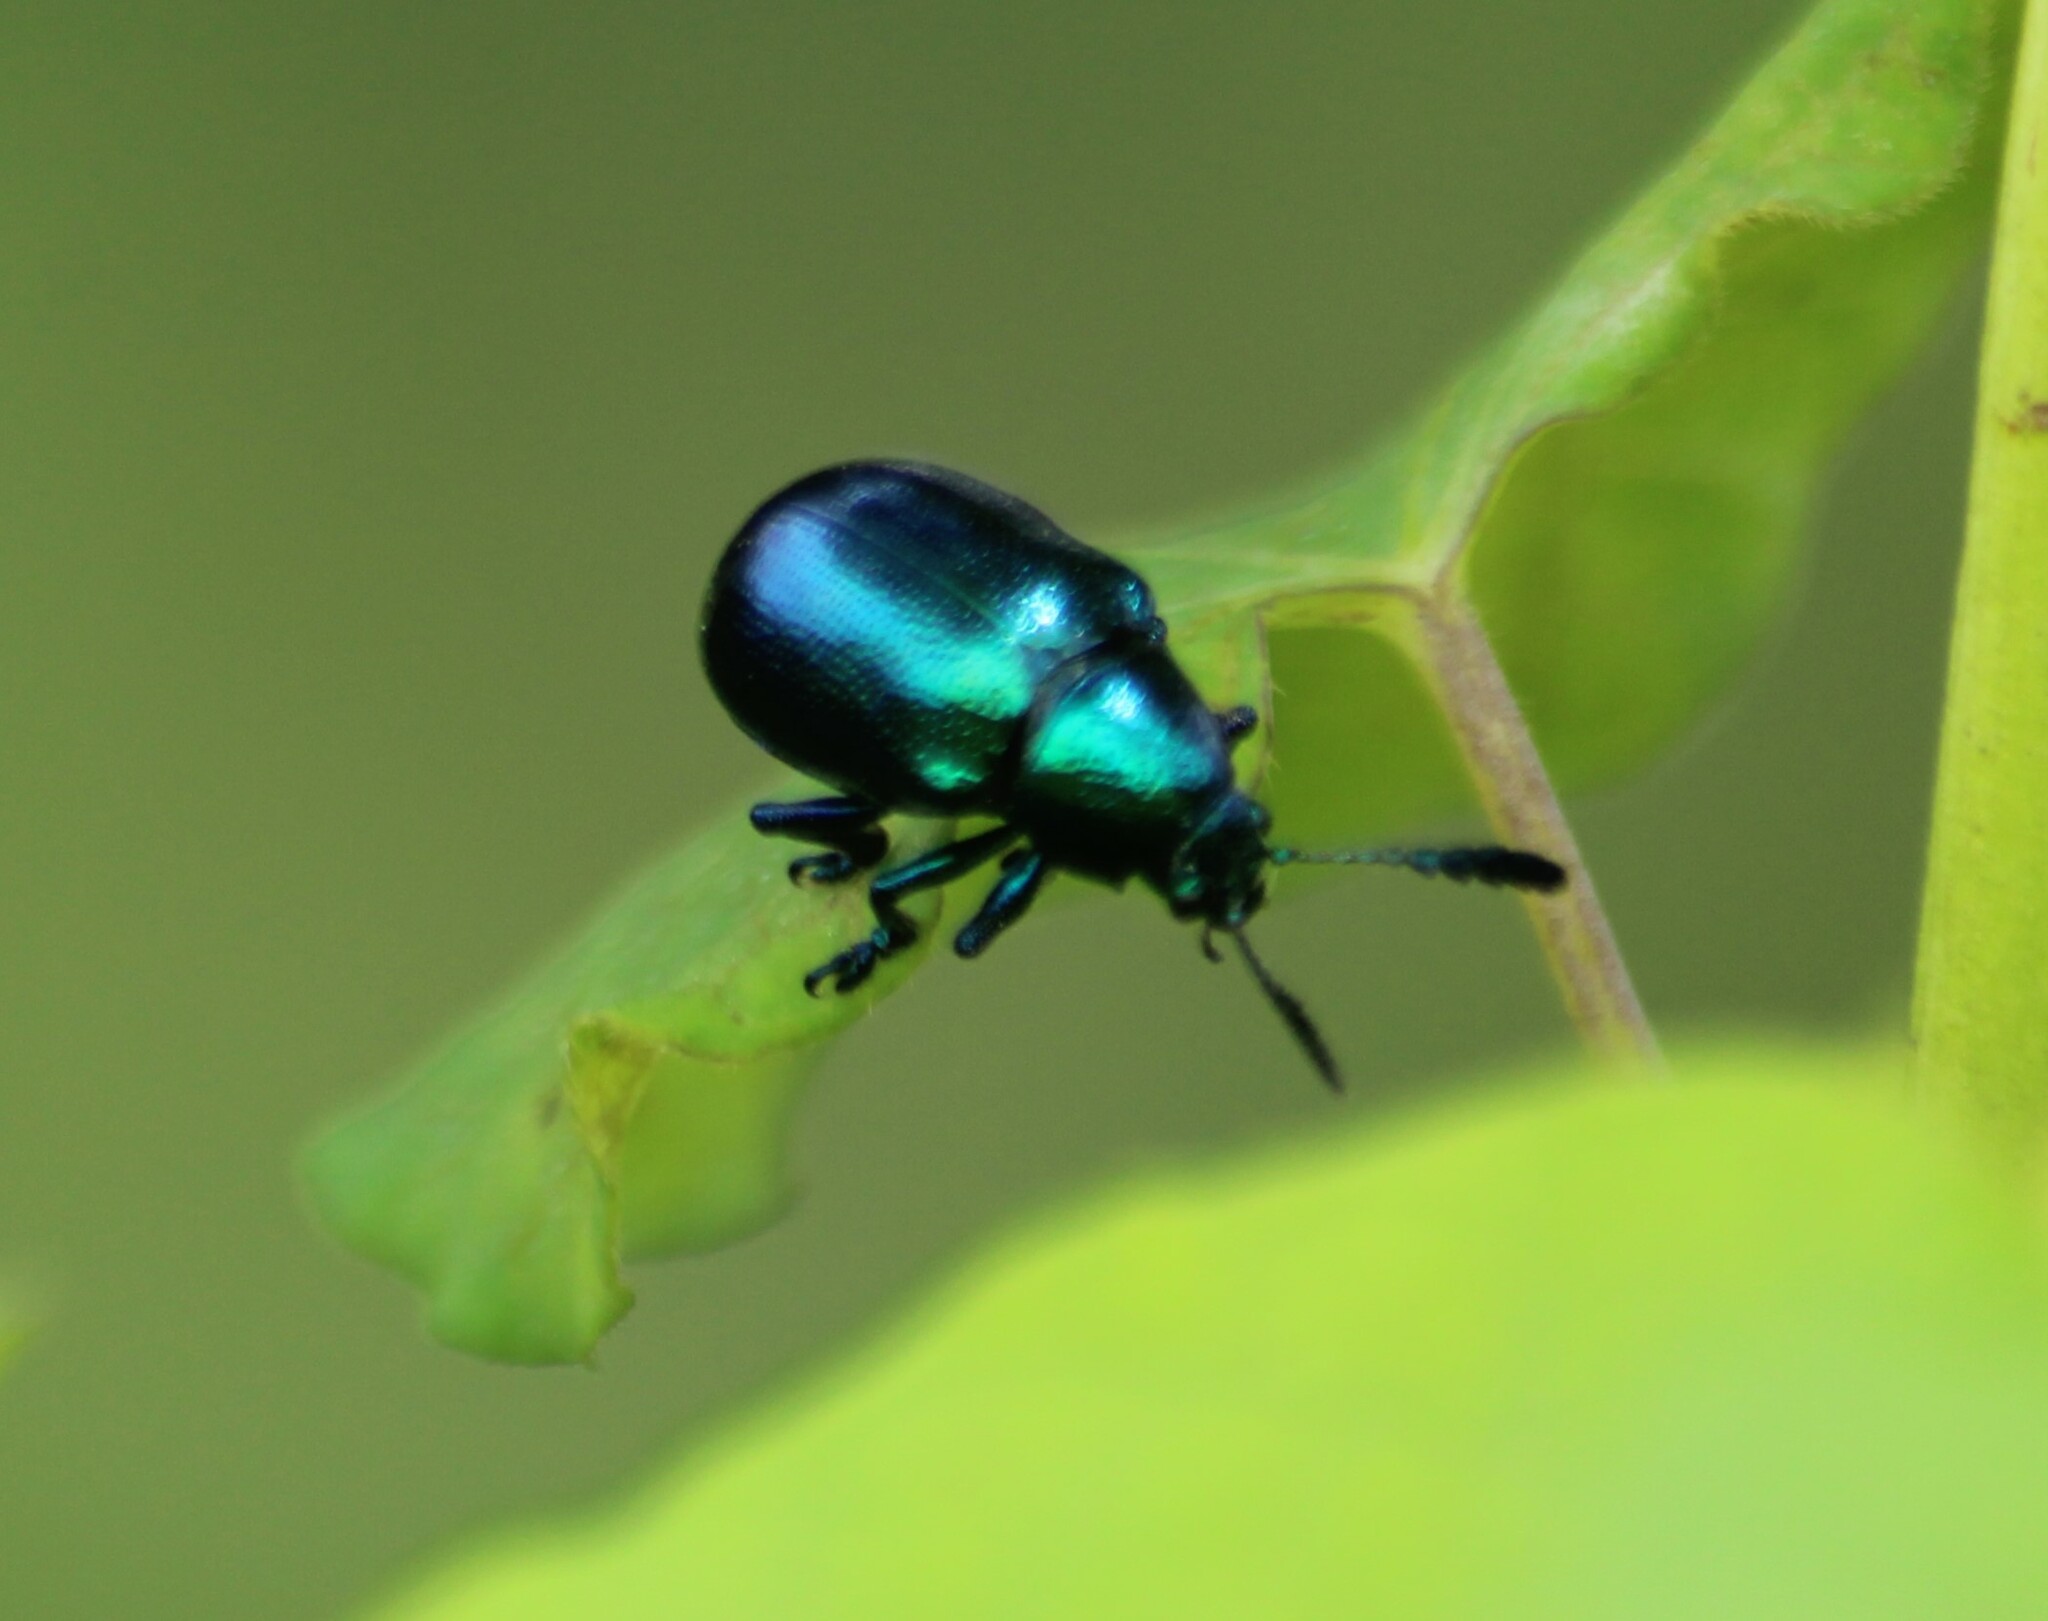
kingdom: Animalia
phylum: Arthropoda
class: Insecta
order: Coleoptera
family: Chrysomelidae
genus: Platycorynus
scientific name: Platycorynus
